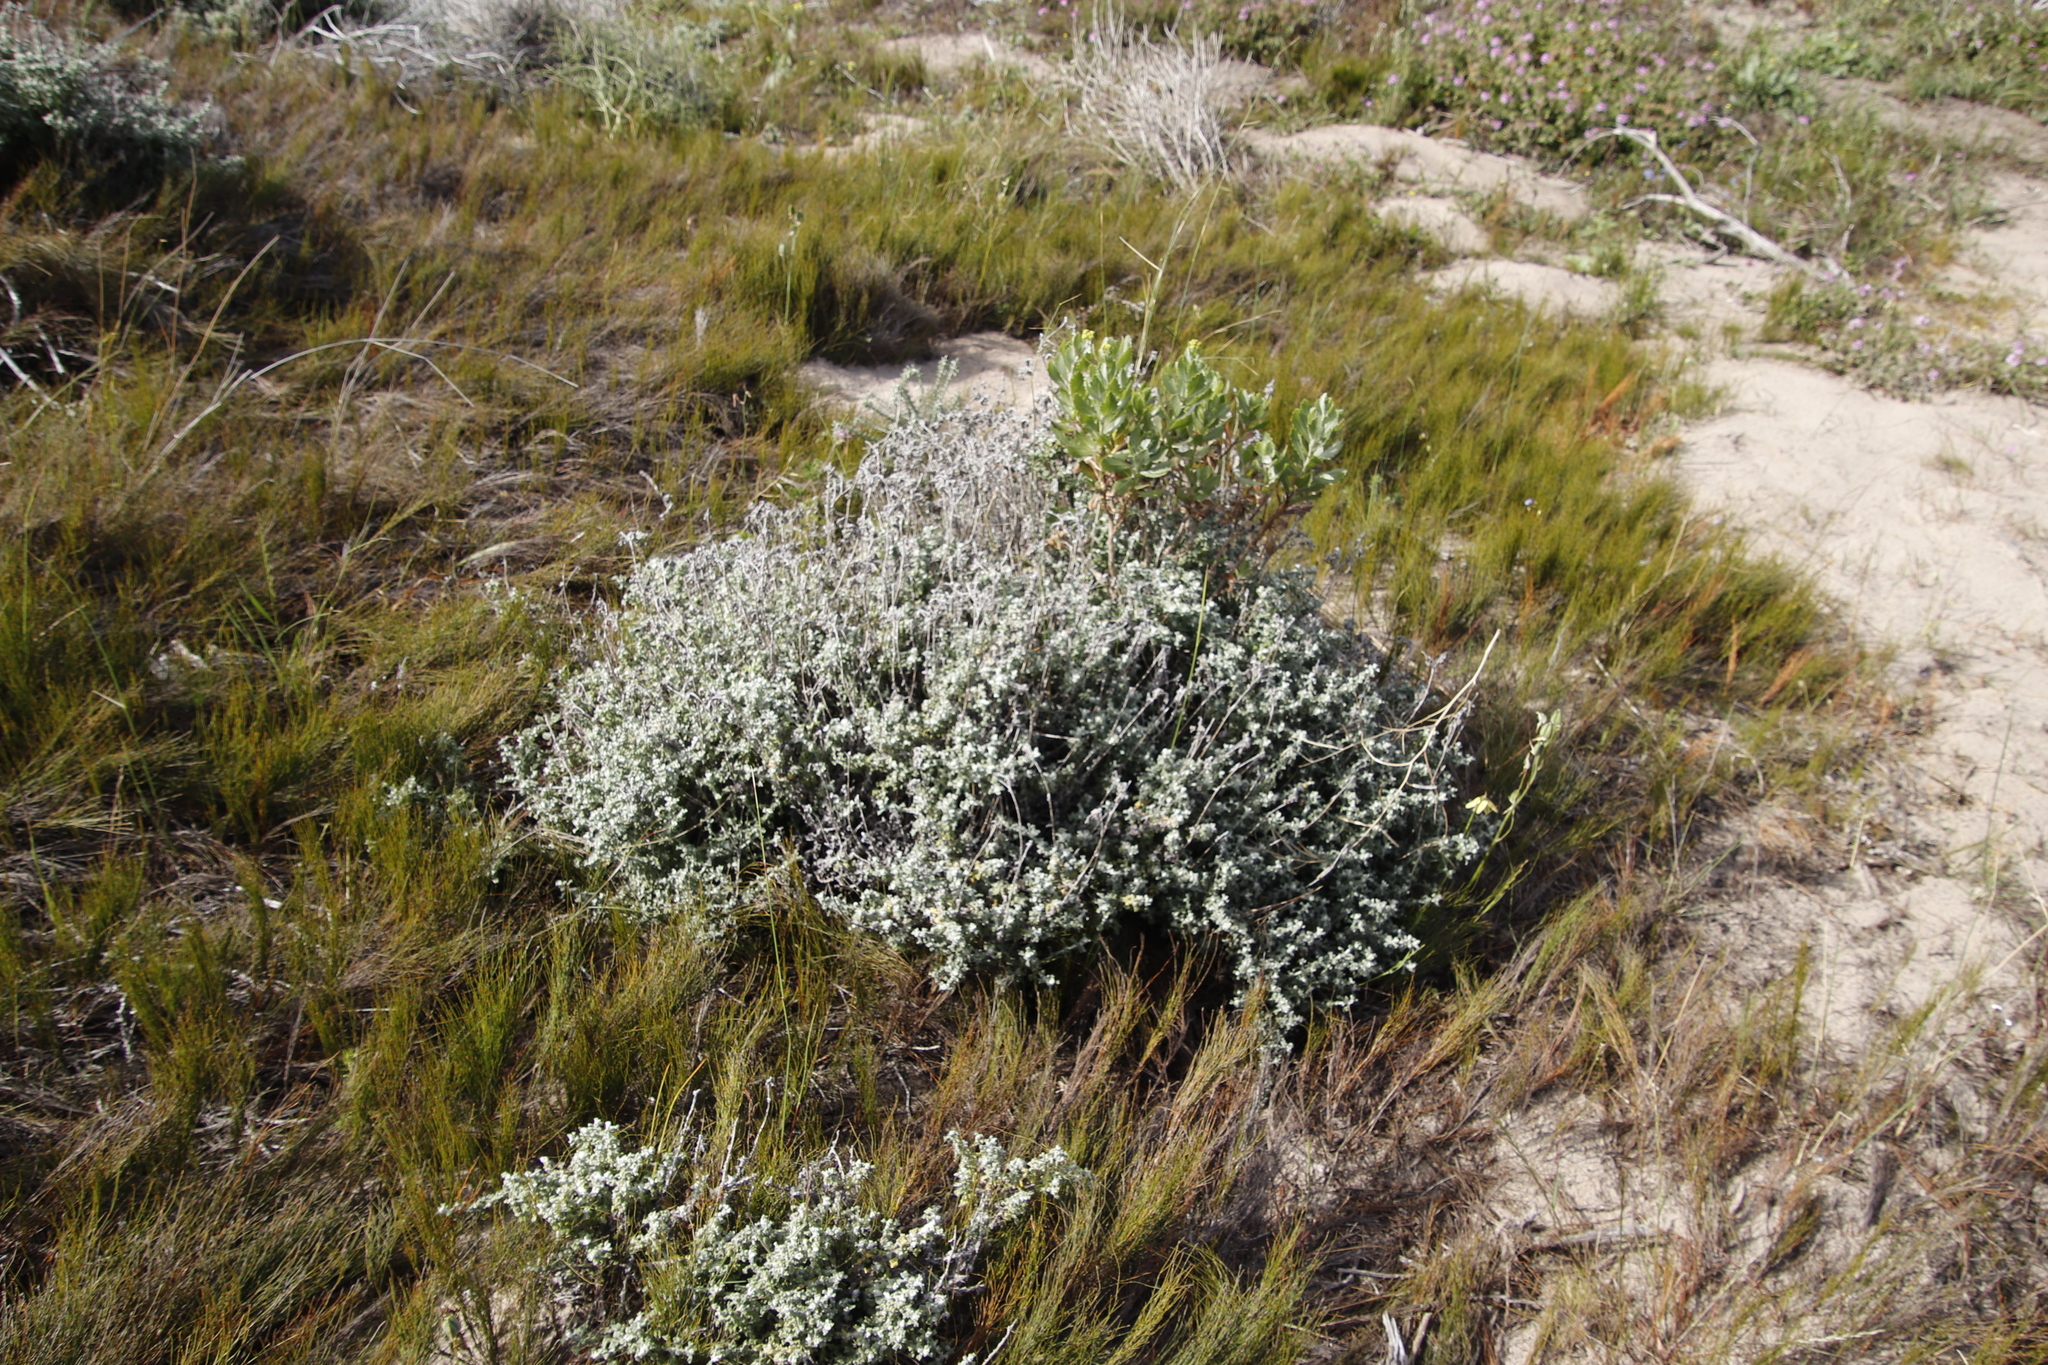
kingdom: Plantae
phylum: Tracheophyta
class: Magnoliopsida
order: Asterales
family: Asteraceae
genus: Helichrysum
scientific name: Helichrysum patulum
